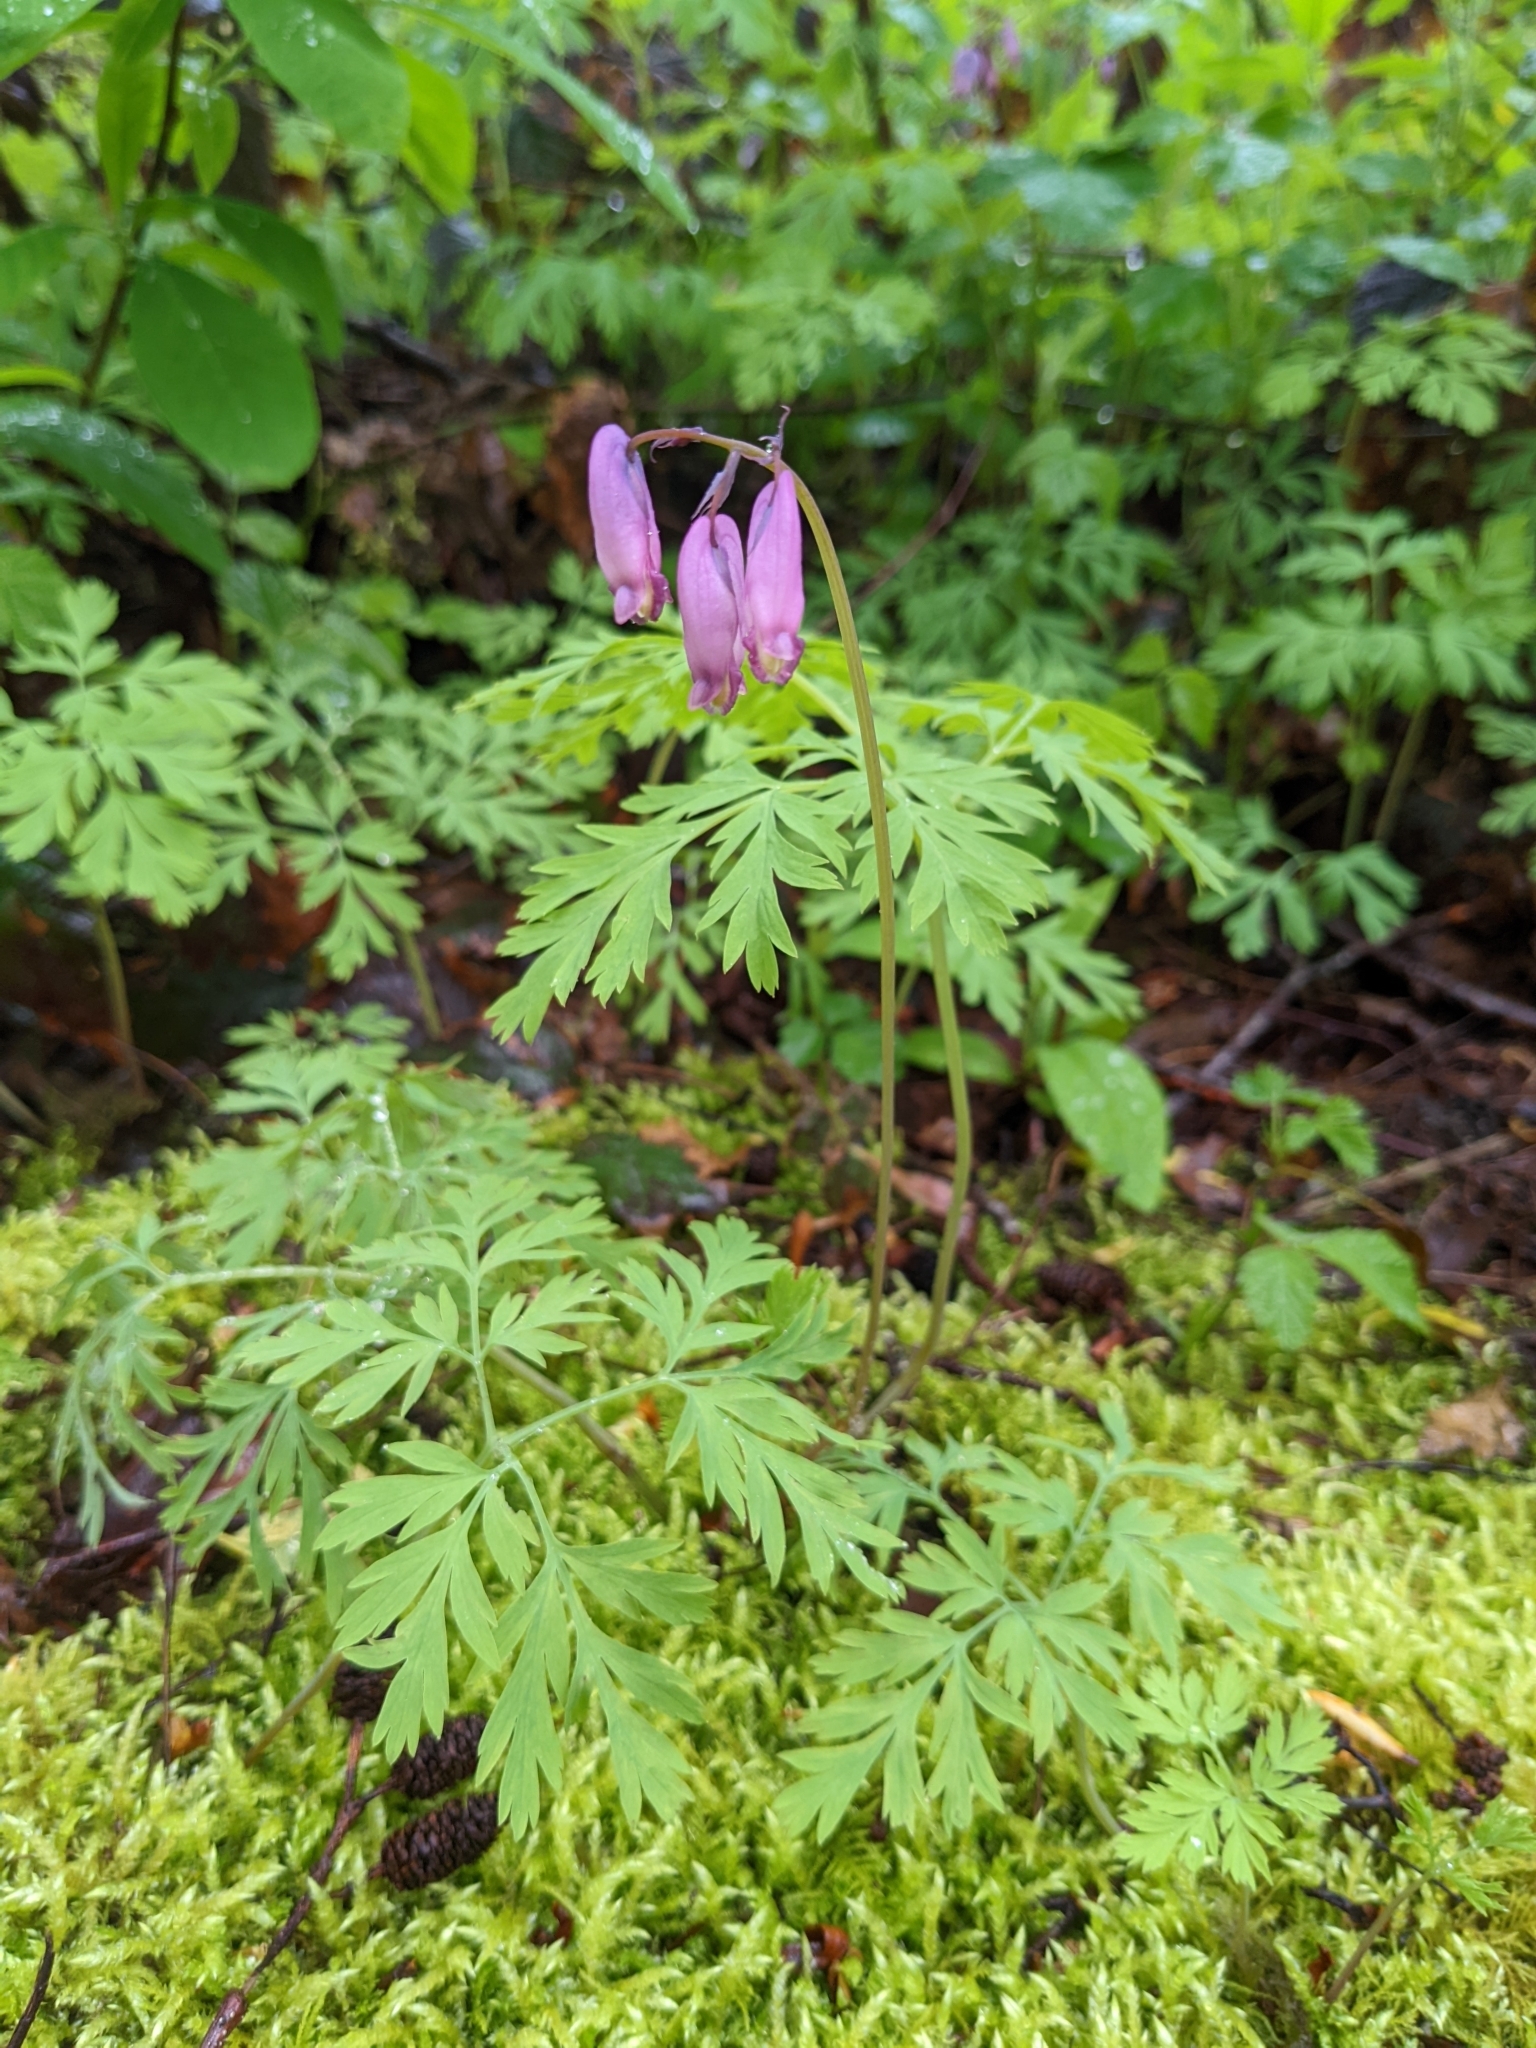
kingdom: Plantae
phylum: Tracheophyta
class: Magnoliopsida
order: Ranunculales
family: Papaveraceae
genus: Dicentra
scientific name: Dicentra formosa
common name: Bleeding-heart
